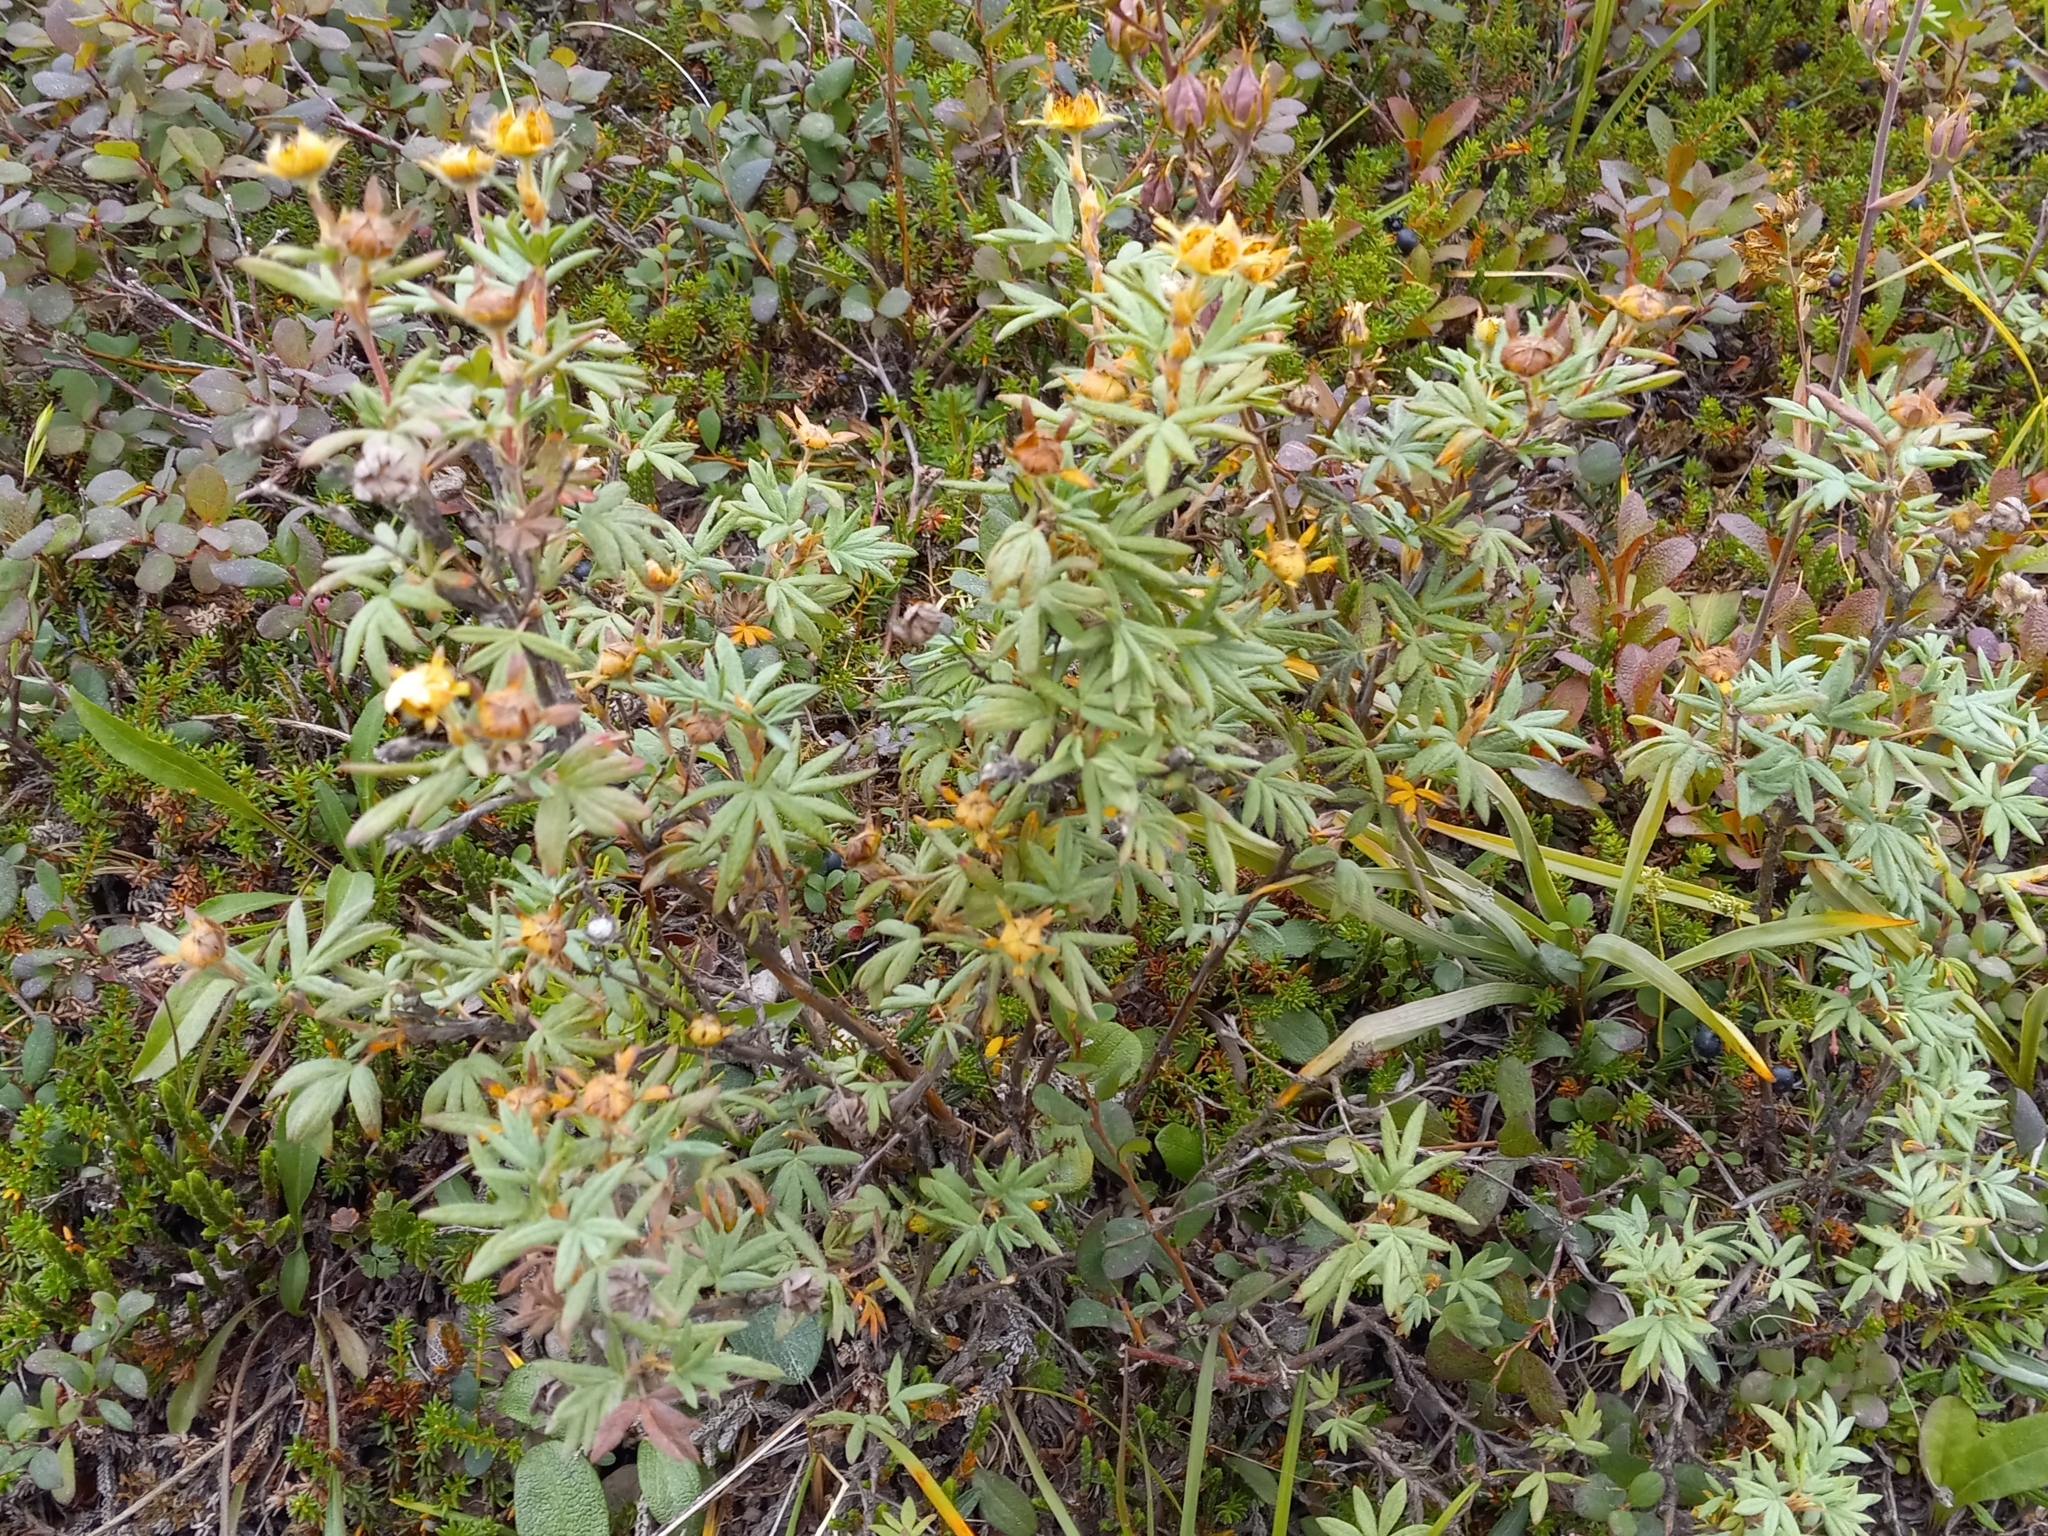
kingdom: Plantae
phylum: Tracheophyta
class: Magnoliopsida
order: Rosales
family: Rosaceae
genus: Dasiphora
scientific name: Dasiphora fruticosa
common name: Shrubby cinquefoil
